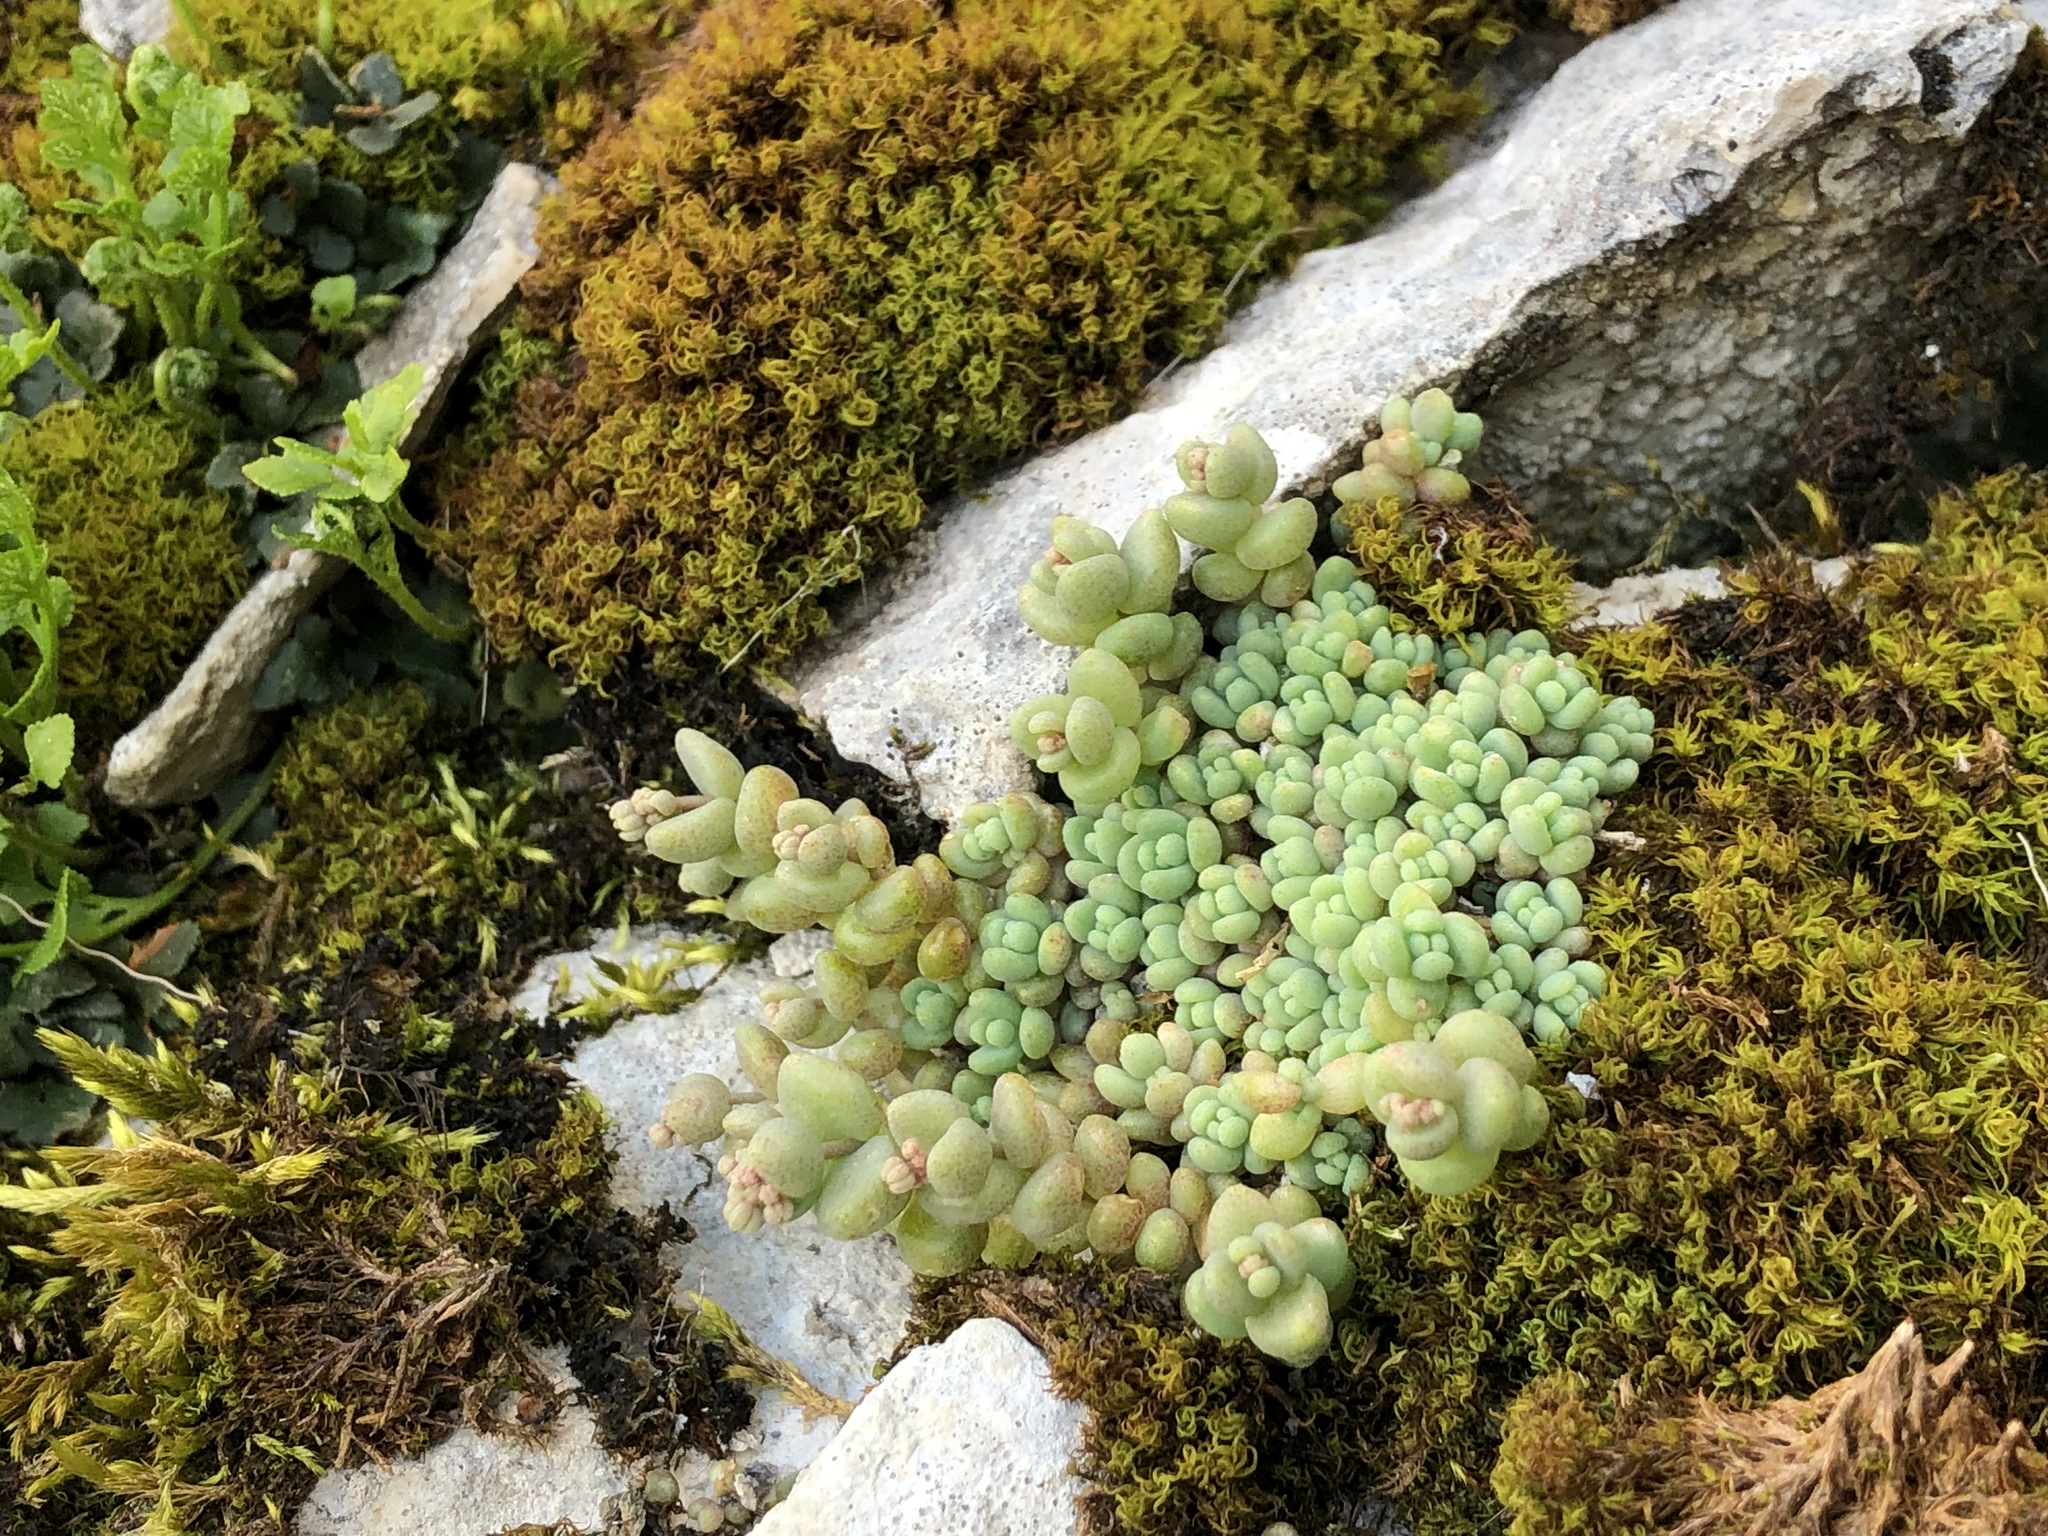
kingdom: Plantae
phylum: Tracheophyta
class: Magnoliopsida
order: Saxifragales
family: Crassulaceae
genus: Sedum
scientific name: Sedum dasyphyllum
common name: Thick-leaf stonecrop
